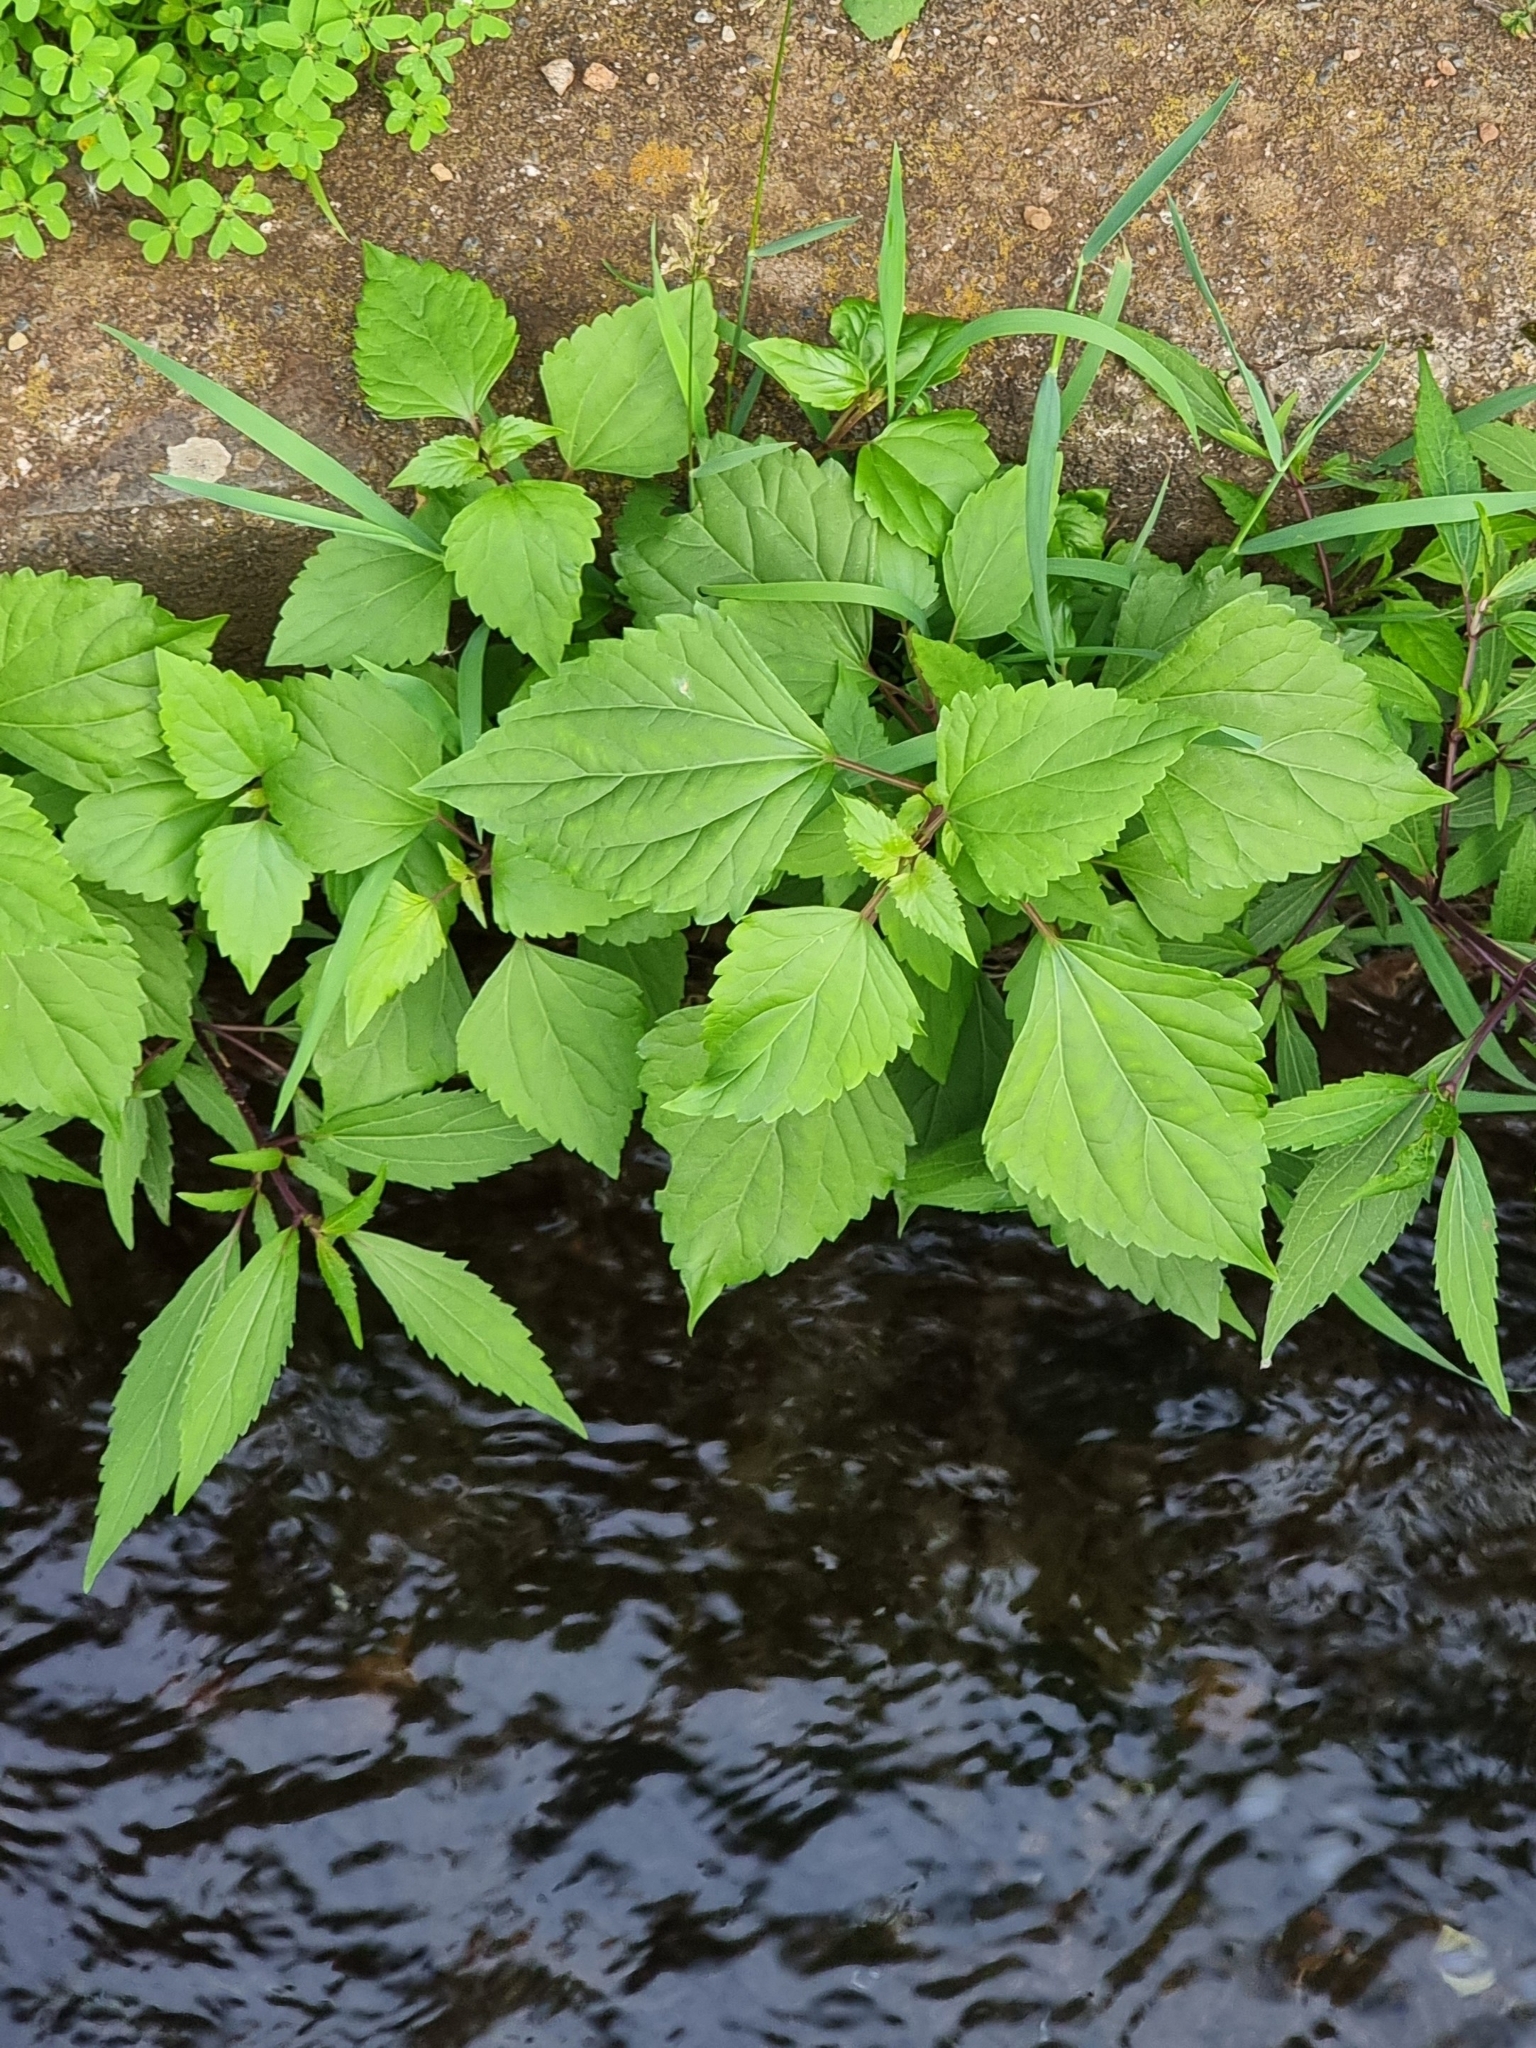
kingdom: Plantae
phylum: Tracheophyta
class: Magnoliopsida
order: Asterales
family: Asteraceae
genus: Ageratina
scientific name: Ageratina adenophora
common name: Sticky snakeroot
